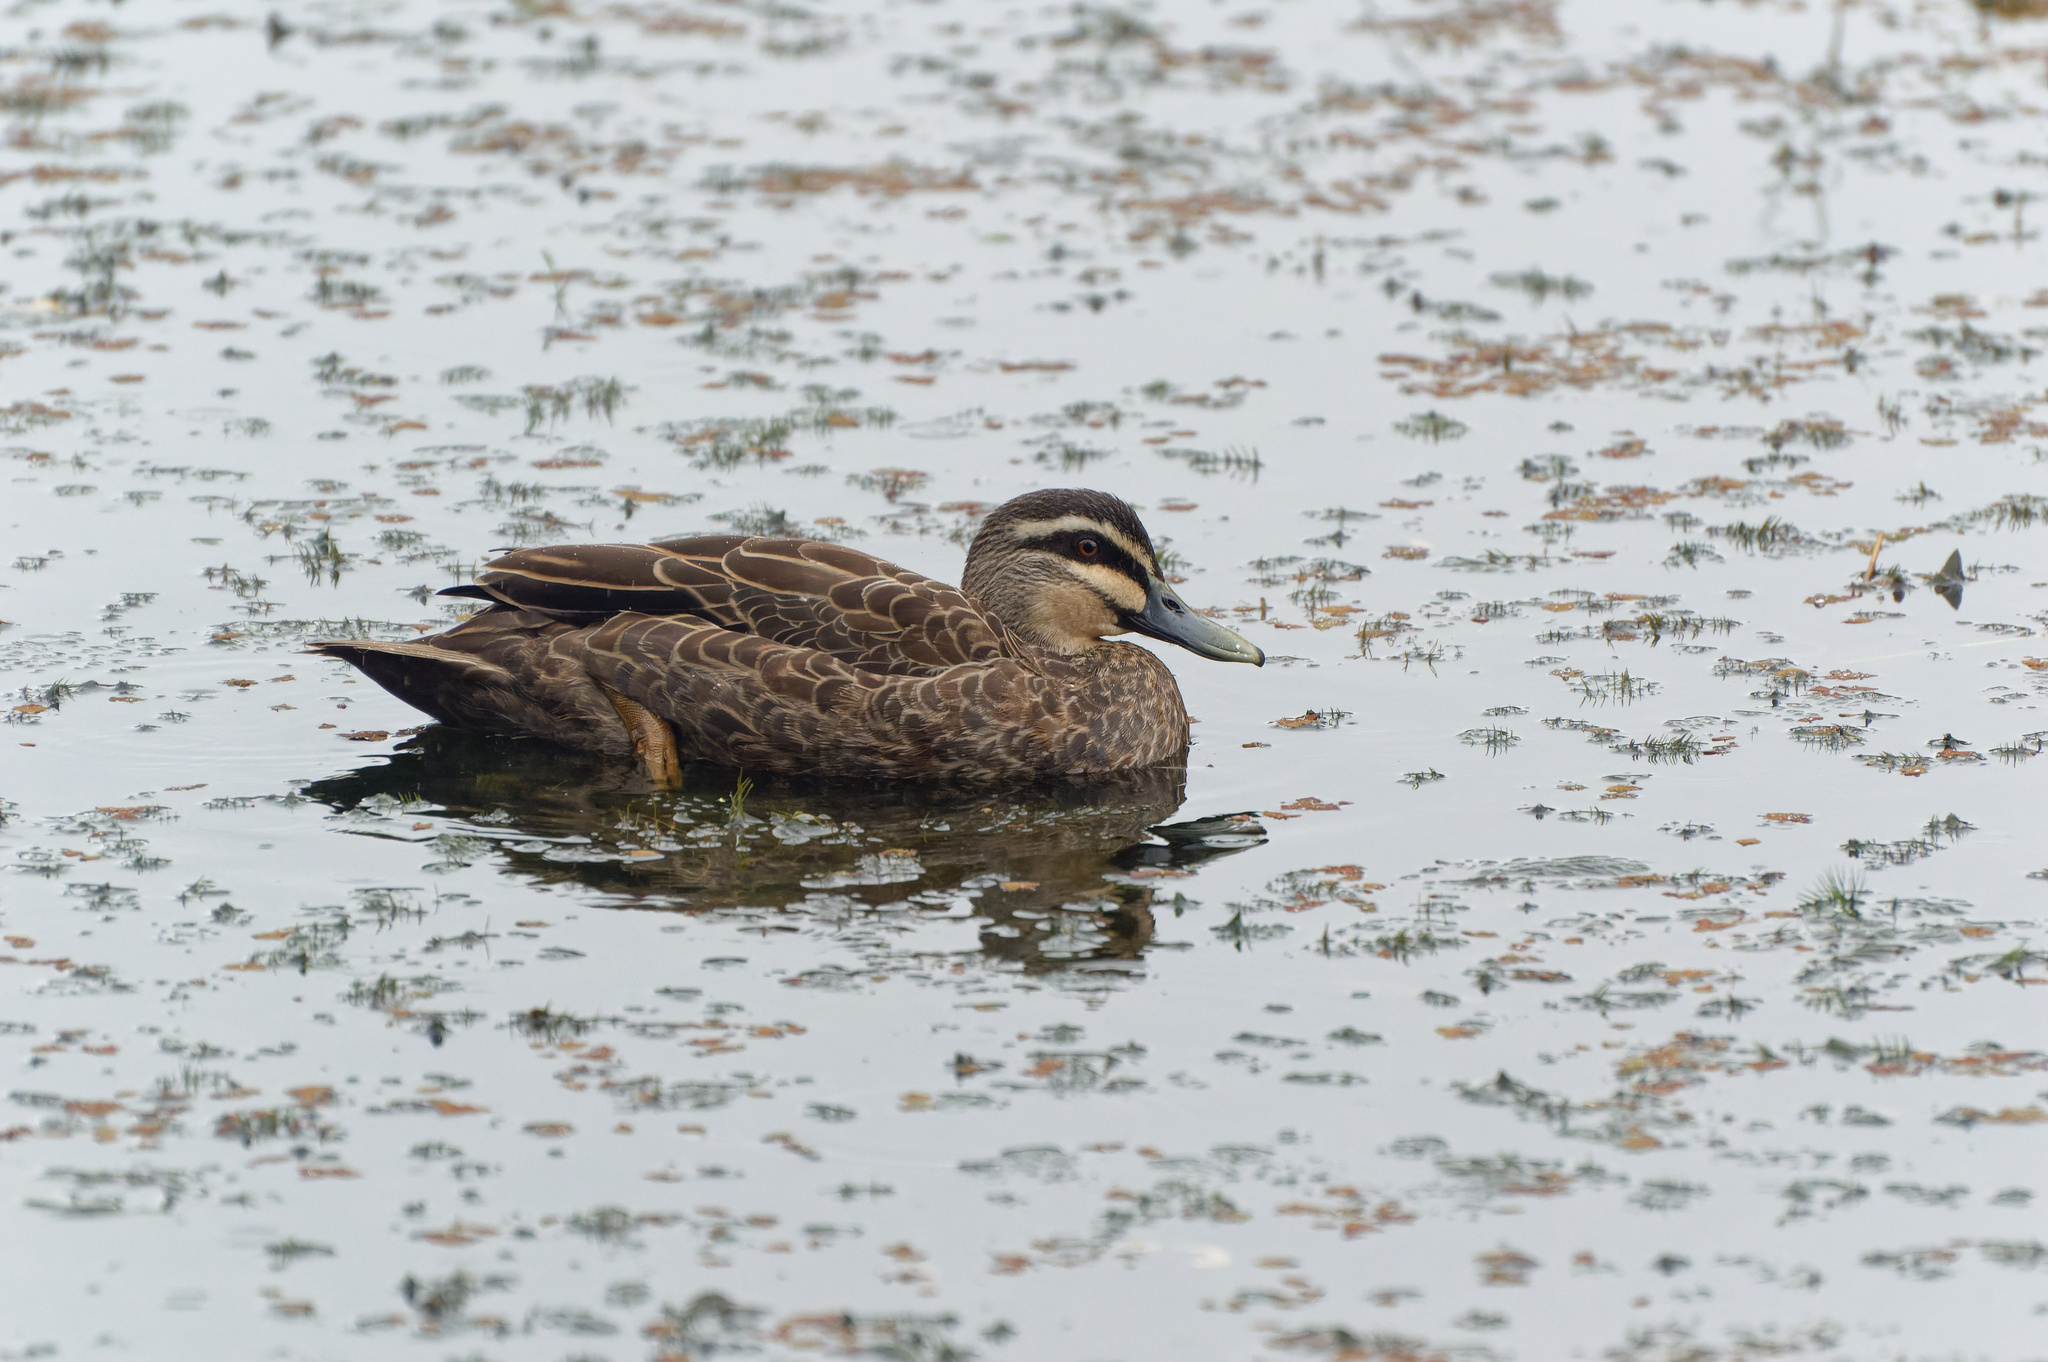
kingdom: Animalia
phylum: Chordata
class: Aves
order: Anseriformes
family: Anatidae
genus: Anas
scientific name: Anas superciliosa
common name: Pacific black duck
